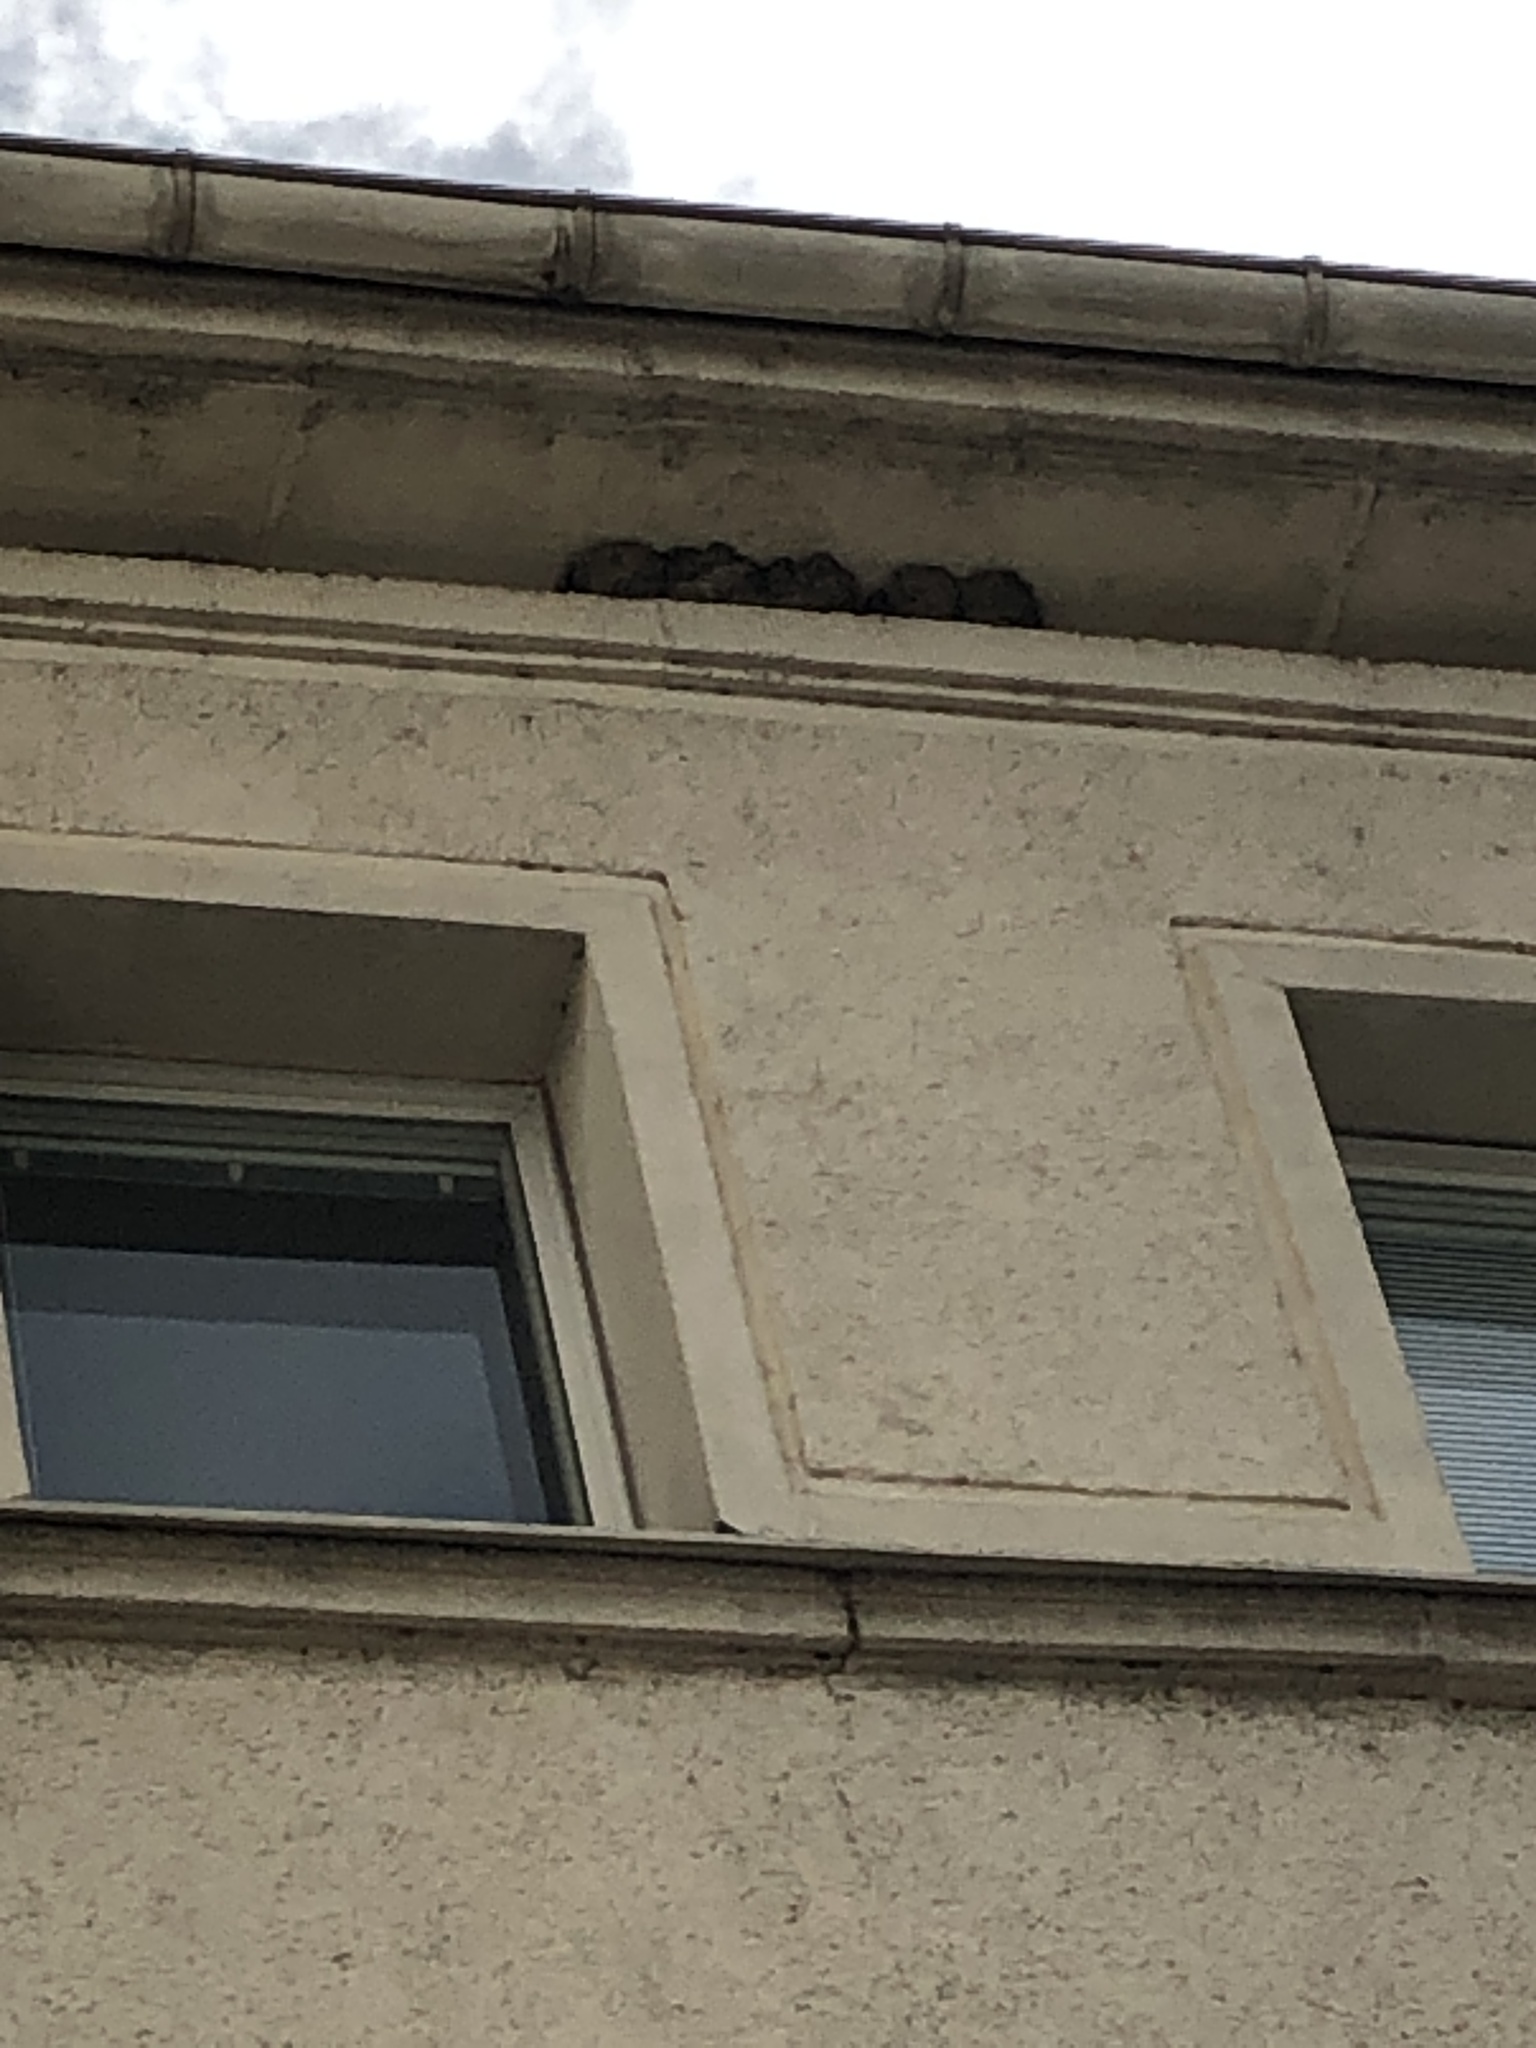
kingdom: Animalia
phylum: Chordata
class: Aves
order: Passeriformes
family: Hirundinidae
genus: Delichon
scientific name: Delichon urbicum
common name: Common house martin
